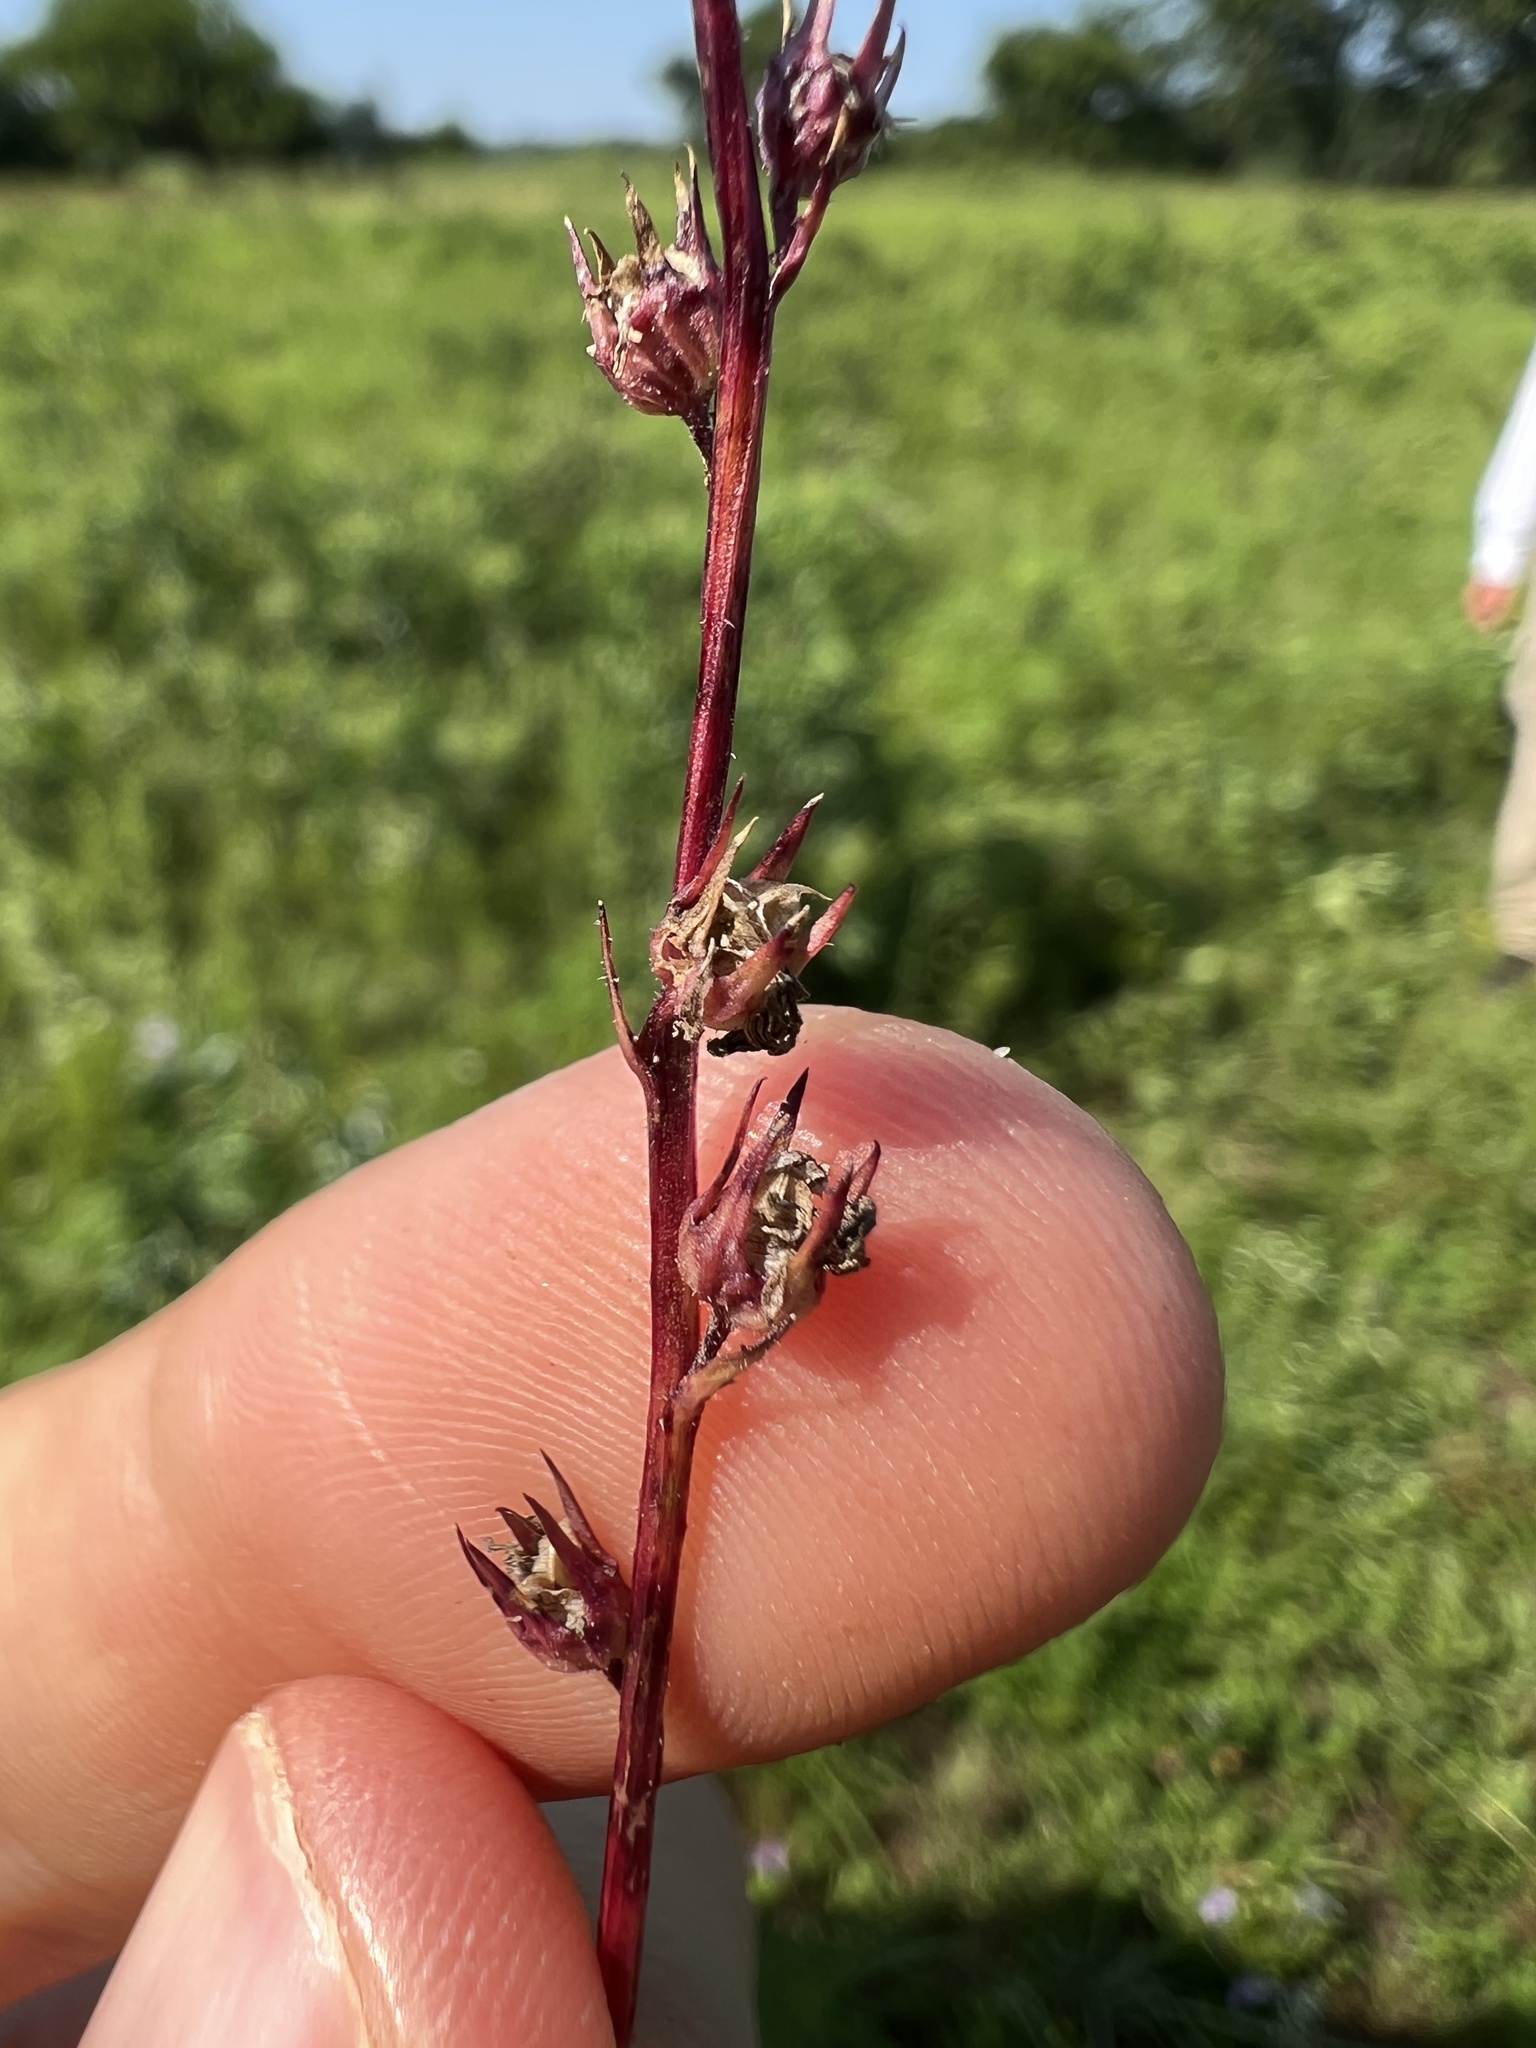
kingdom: Plantae
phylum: Tracheophyta
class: Magnoliopsida
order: Asterales
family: Campanulaceae
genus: Lobelia
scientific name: Lobelia spicata
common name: Pale-spike lobelia
